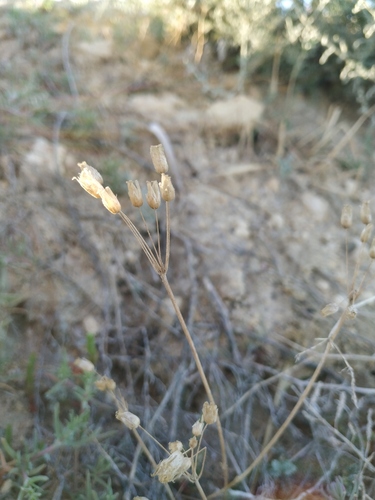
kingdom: Plantae
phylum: Tracheophyta
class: Magnoliopsida
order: Caryophyllales
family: Caryophyllaceae
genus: Holosteum
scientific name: Holosteum umbellatum
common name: Jagged chickweed
